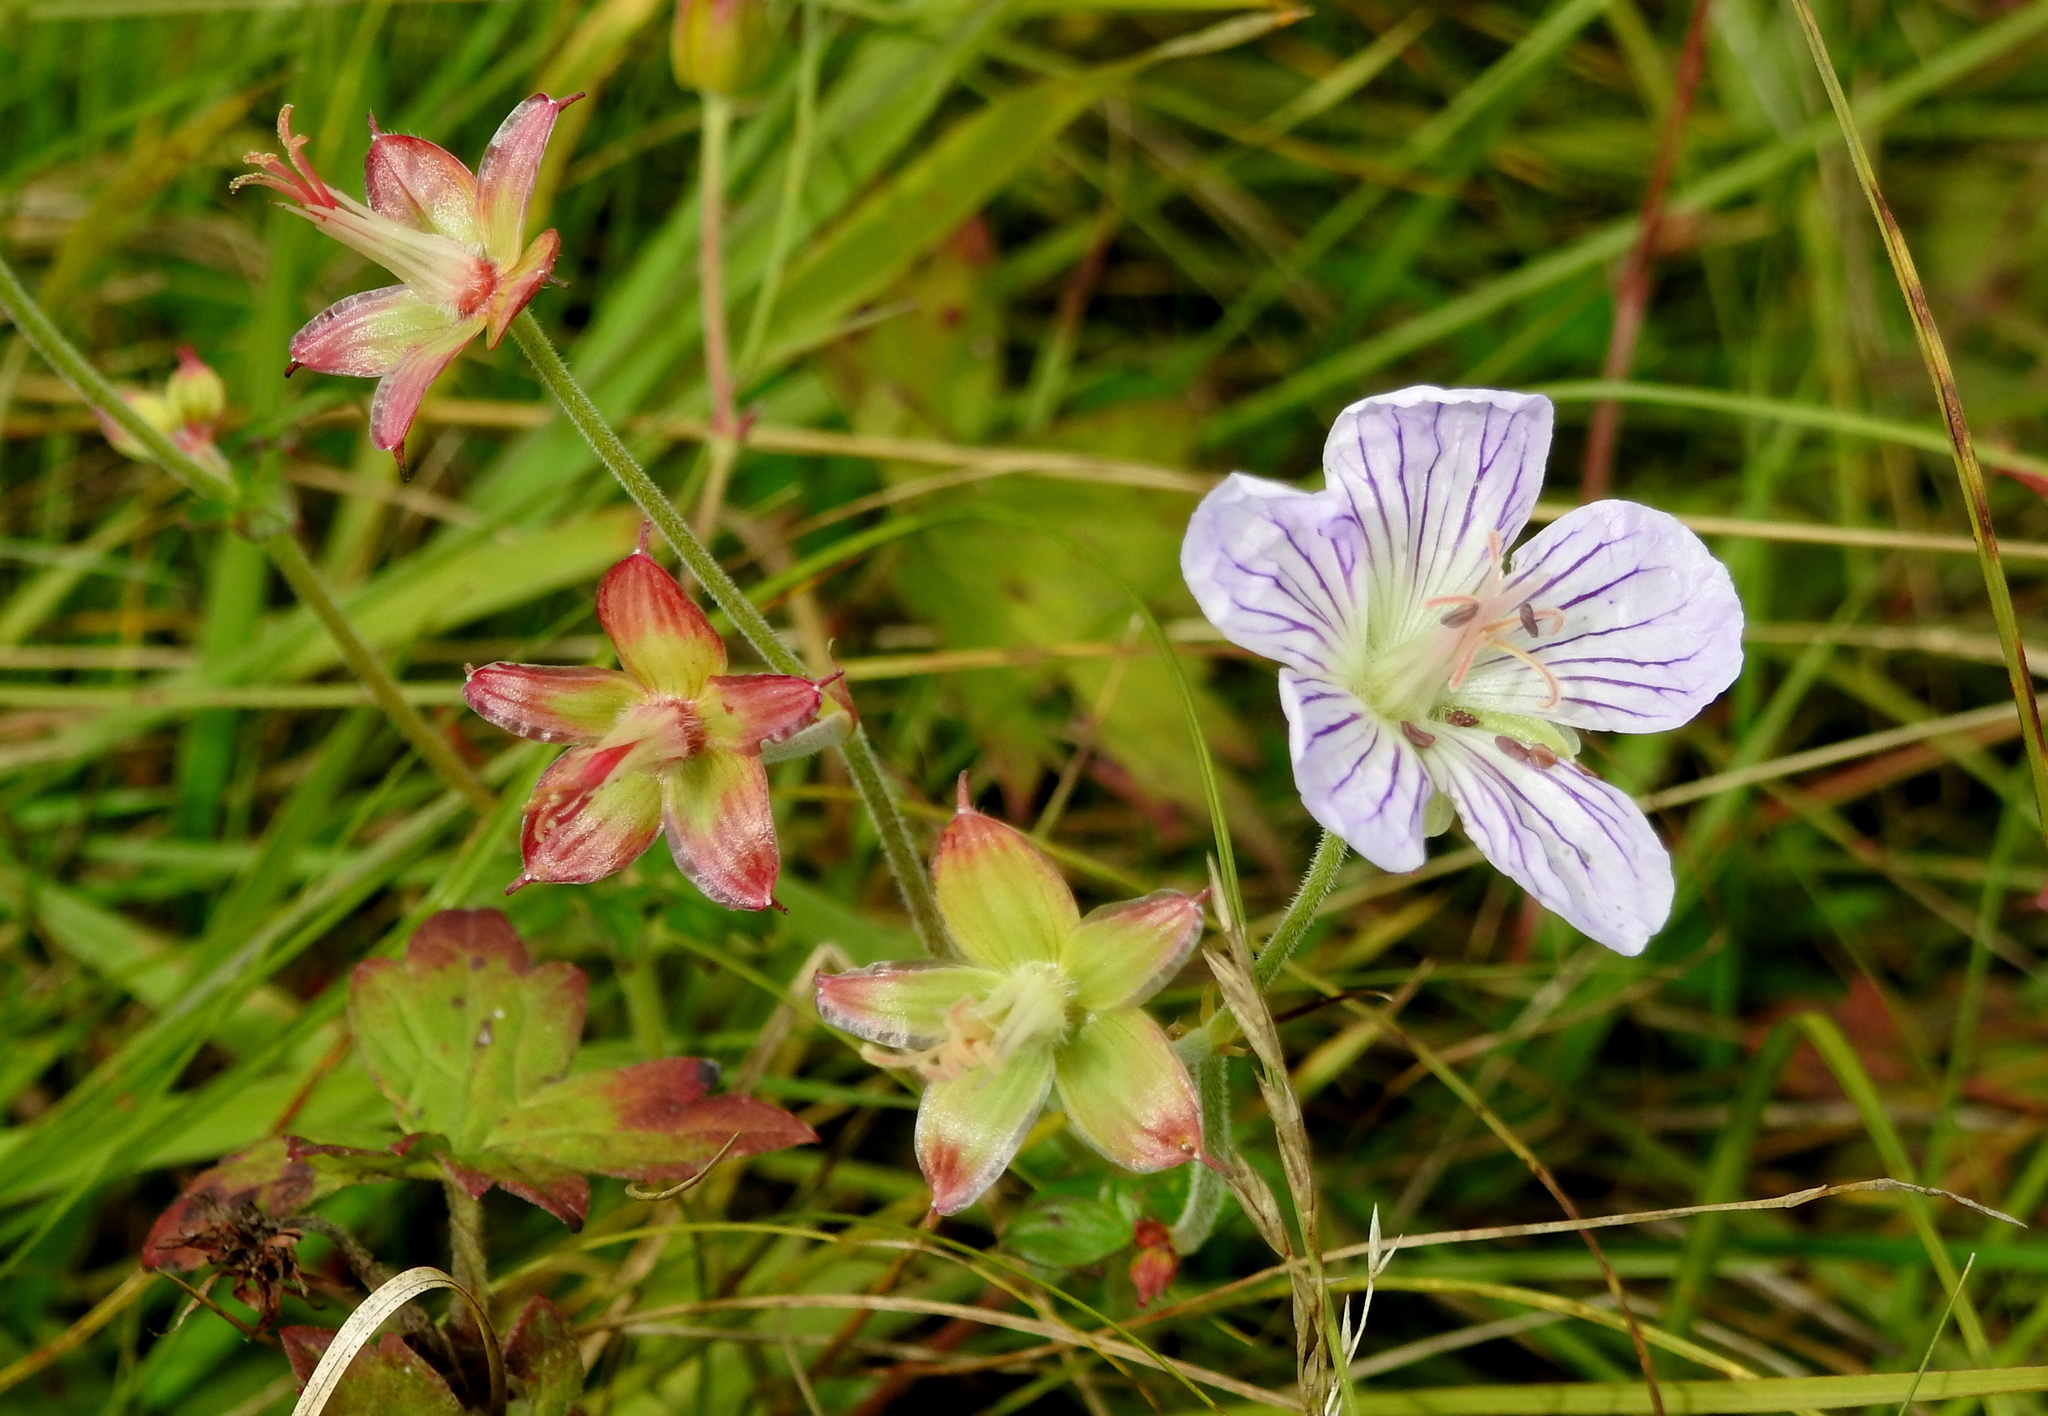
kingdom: Plantae
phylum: Tracheophyta
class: Magnoliopsida
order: Geraniales
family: Geraniaceae
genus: Geranium
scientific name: Geranium wlassovianum
